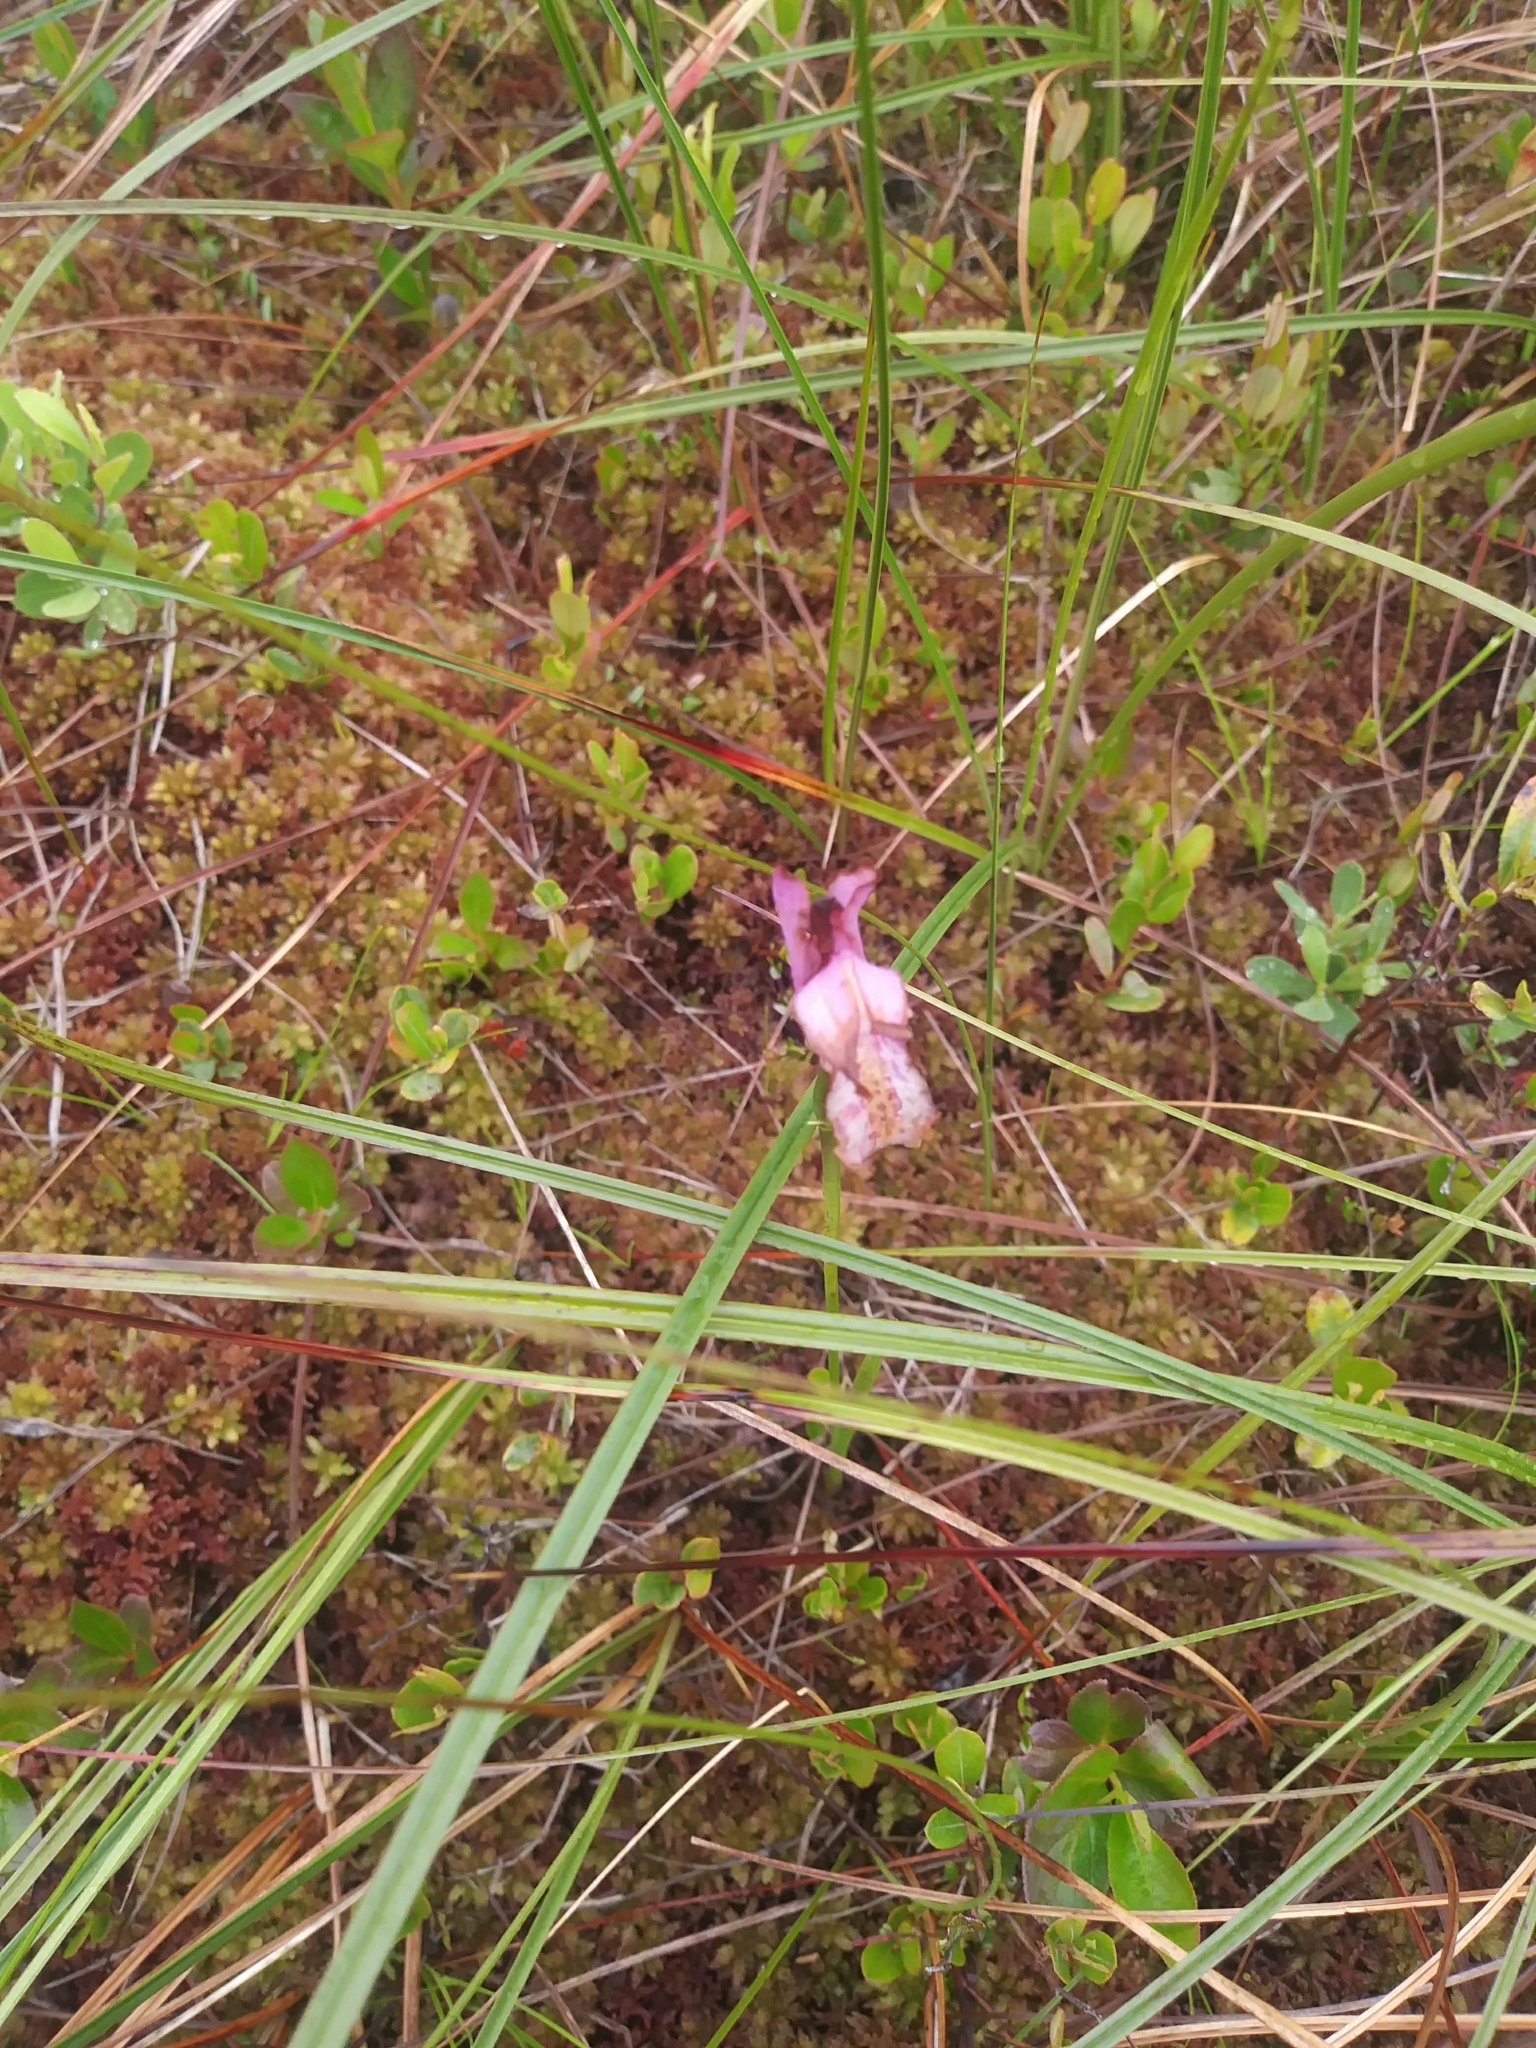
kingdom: Plantae
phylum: Tracheophyta
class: Liliopsida
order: Asparagales
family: Orchidaceae
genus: Arethusa
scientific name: Arethusa bulbosa
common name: Arethusa
